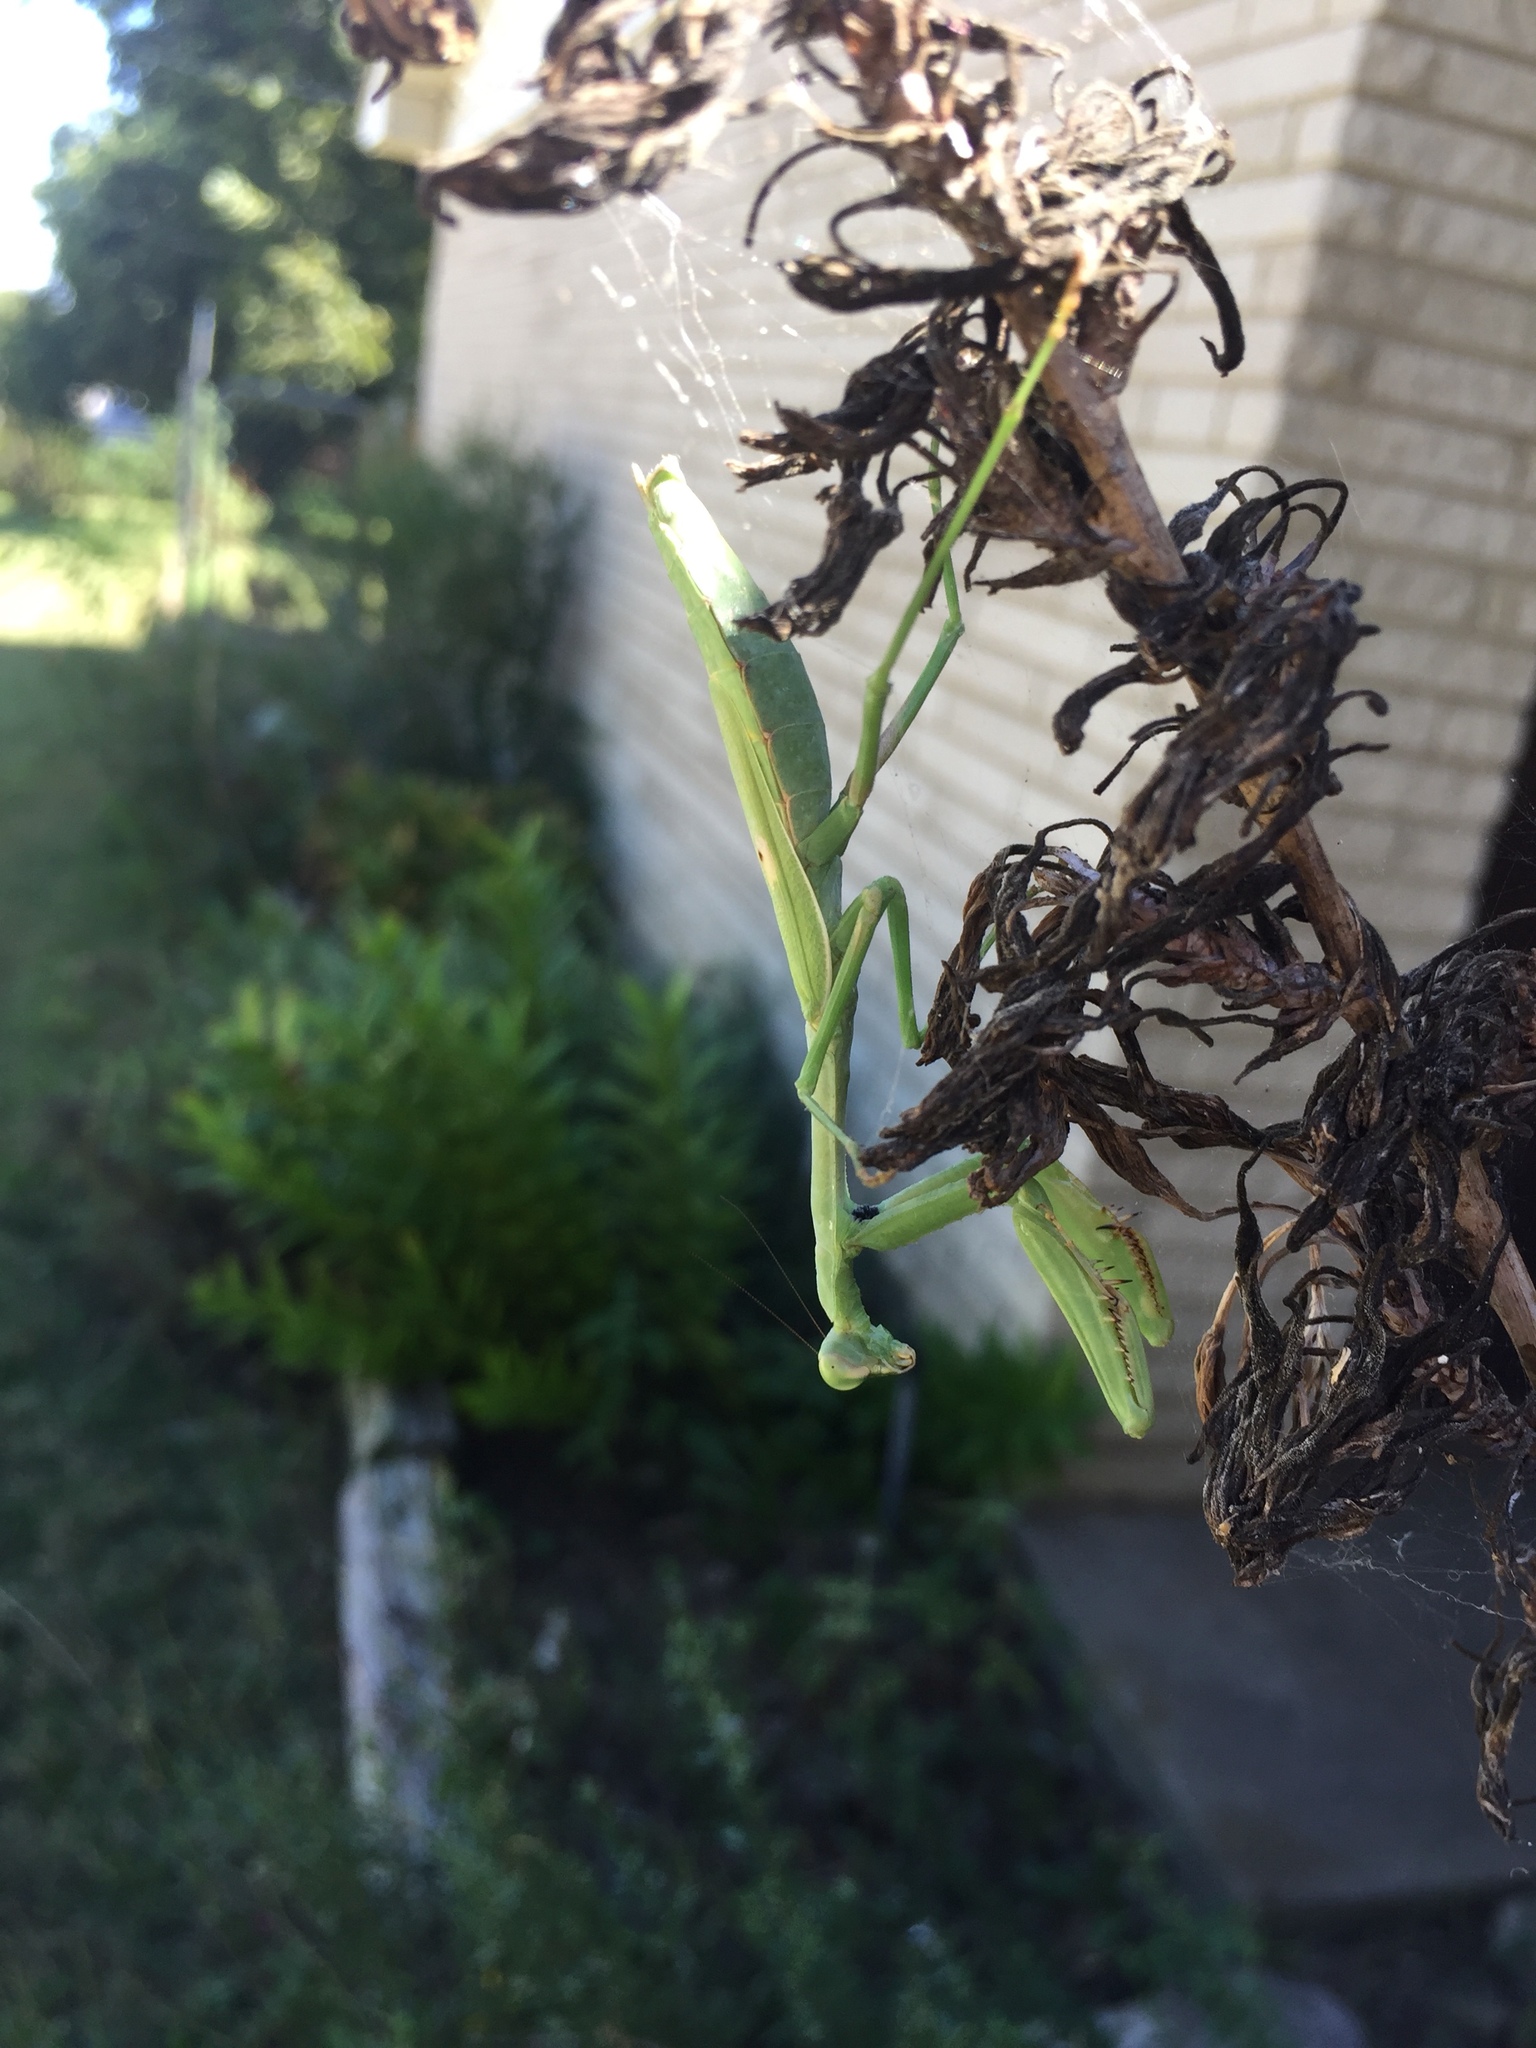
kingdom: Animalia
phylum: Arthropoda
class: Insecta
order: Mantodea
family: Mantidae
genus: Stagmomantis
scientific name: Stagmomantis carolina
